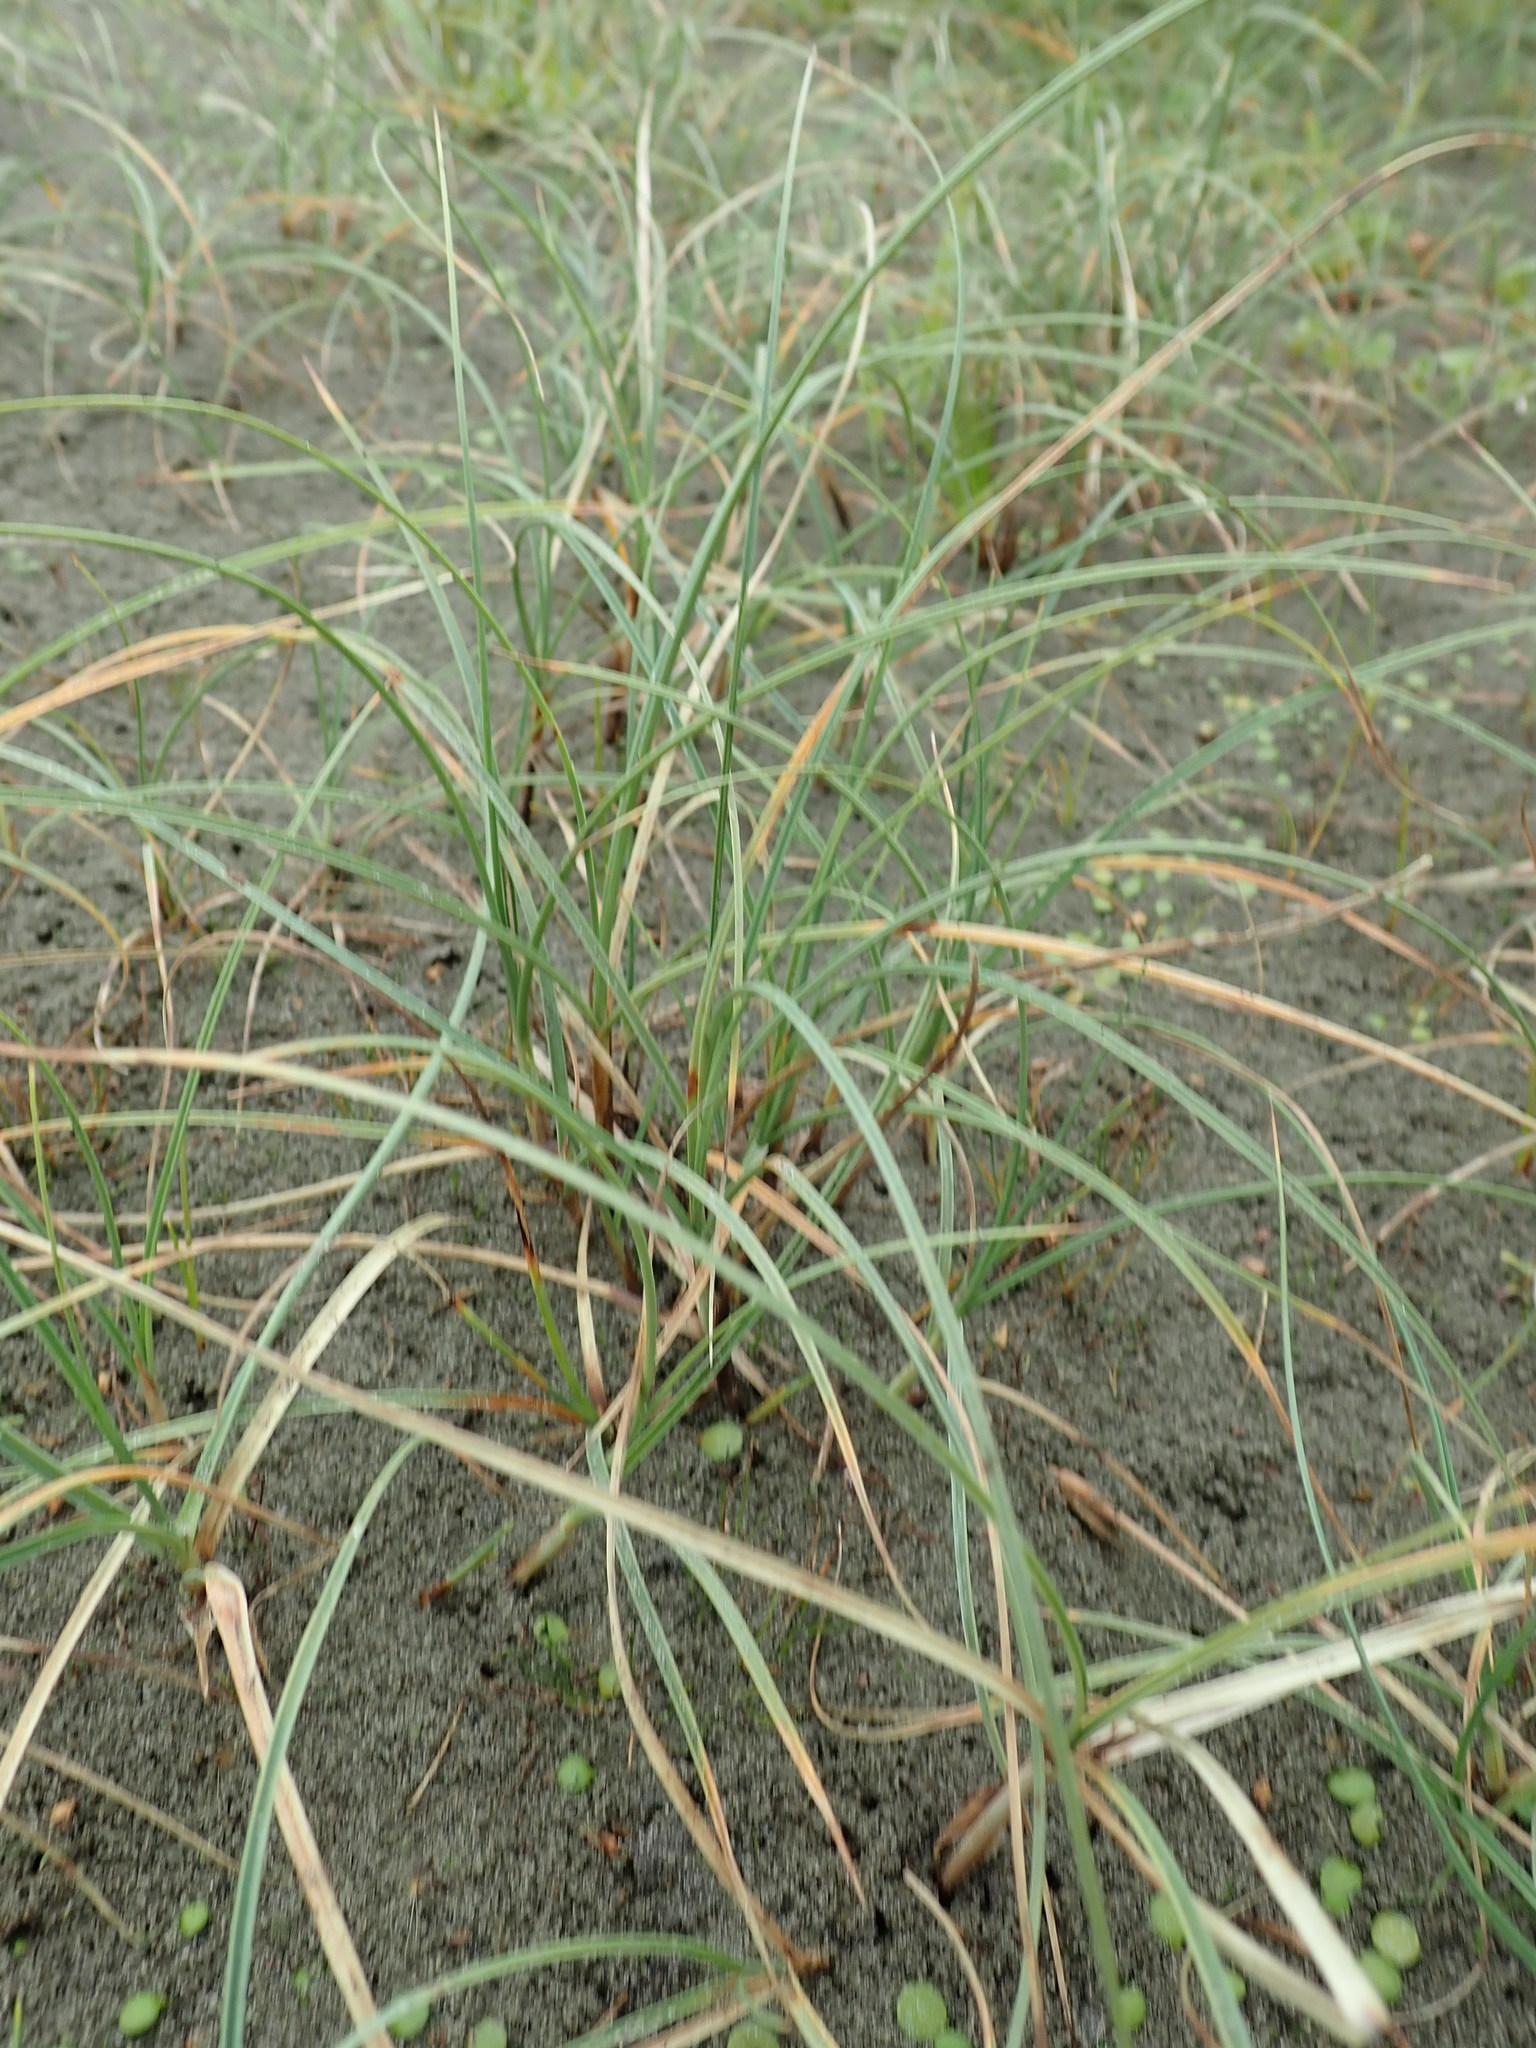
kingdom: Plantae
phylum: Tracheophyta
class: Liliopsida
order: Poales
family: Cyperaceae
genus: Carex
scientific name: Carex pumila
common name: Dwarf sedge
